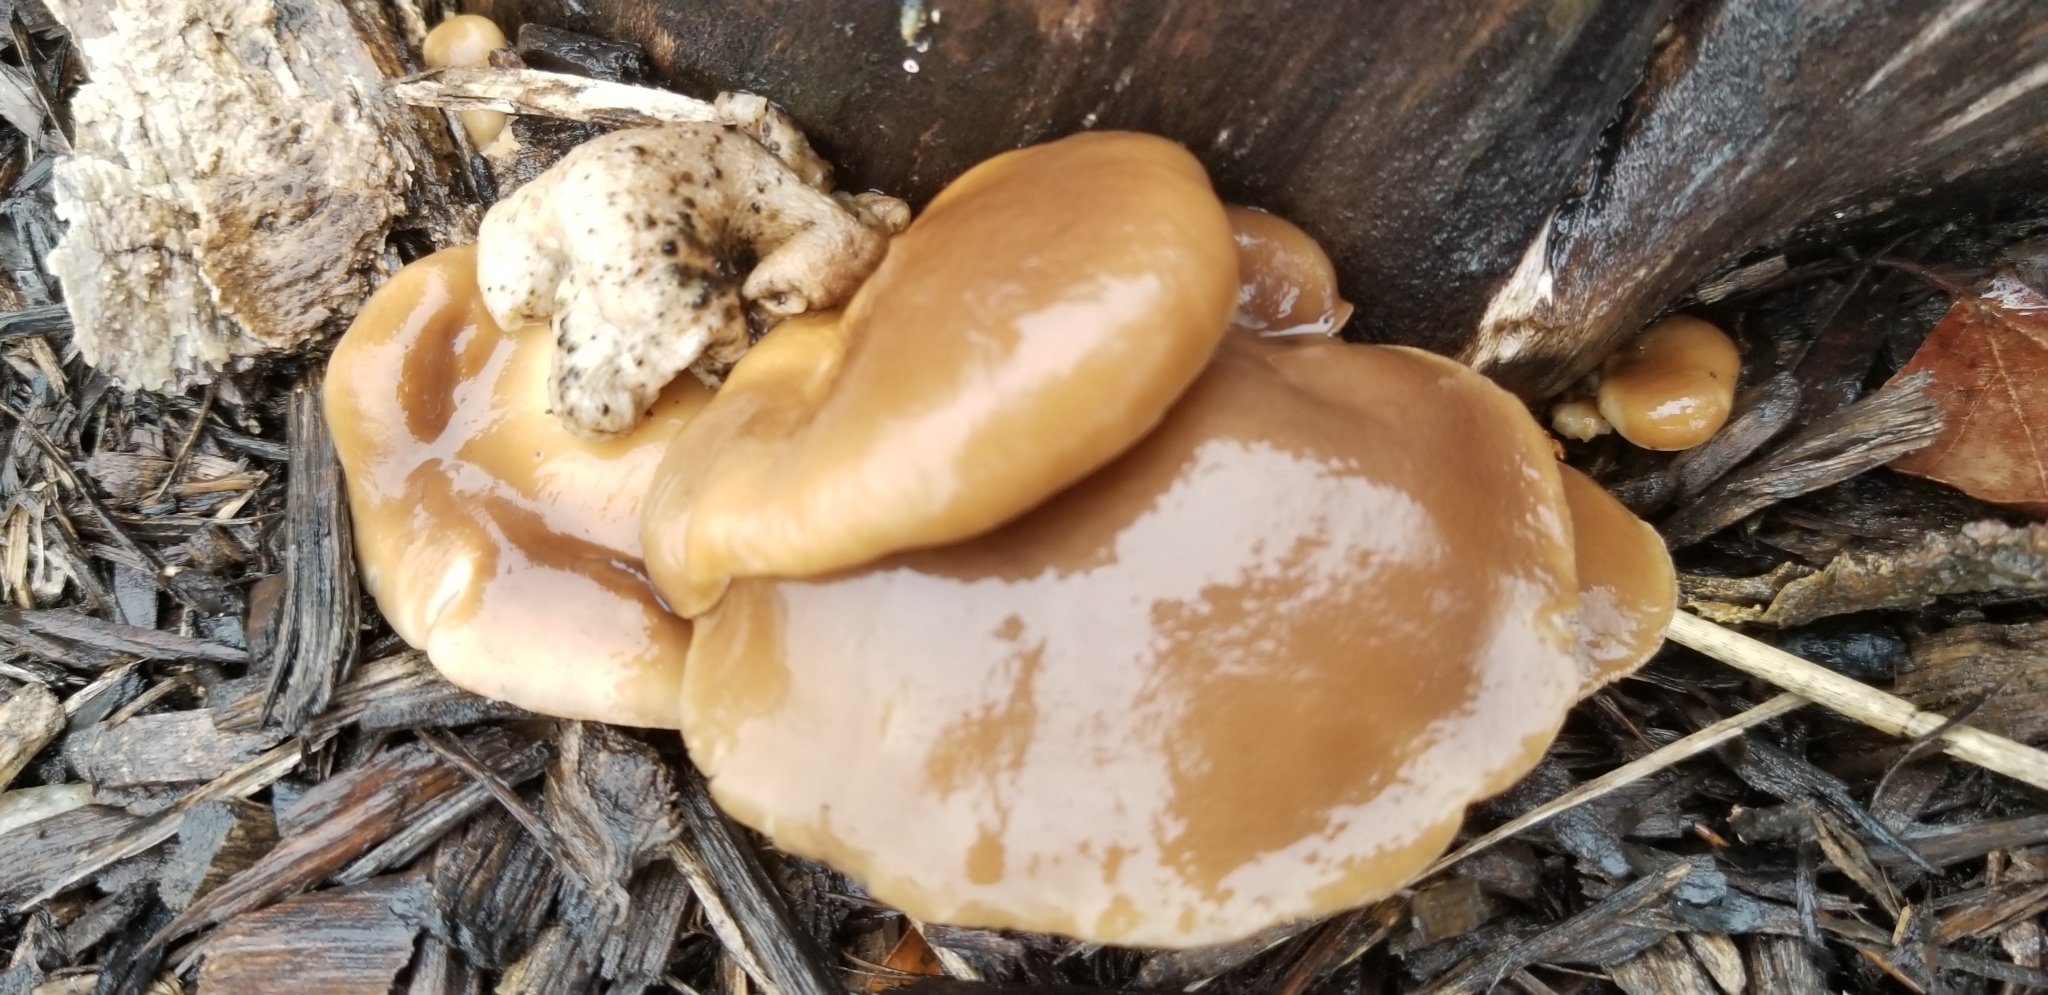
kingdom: Fungi
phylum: Basidiomycota
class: Agaricomycetes
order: Agaricales
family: Pleurotaceae
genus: Pleurotus
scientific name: Pleurotus ostreatus
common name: Oyster mushroom
